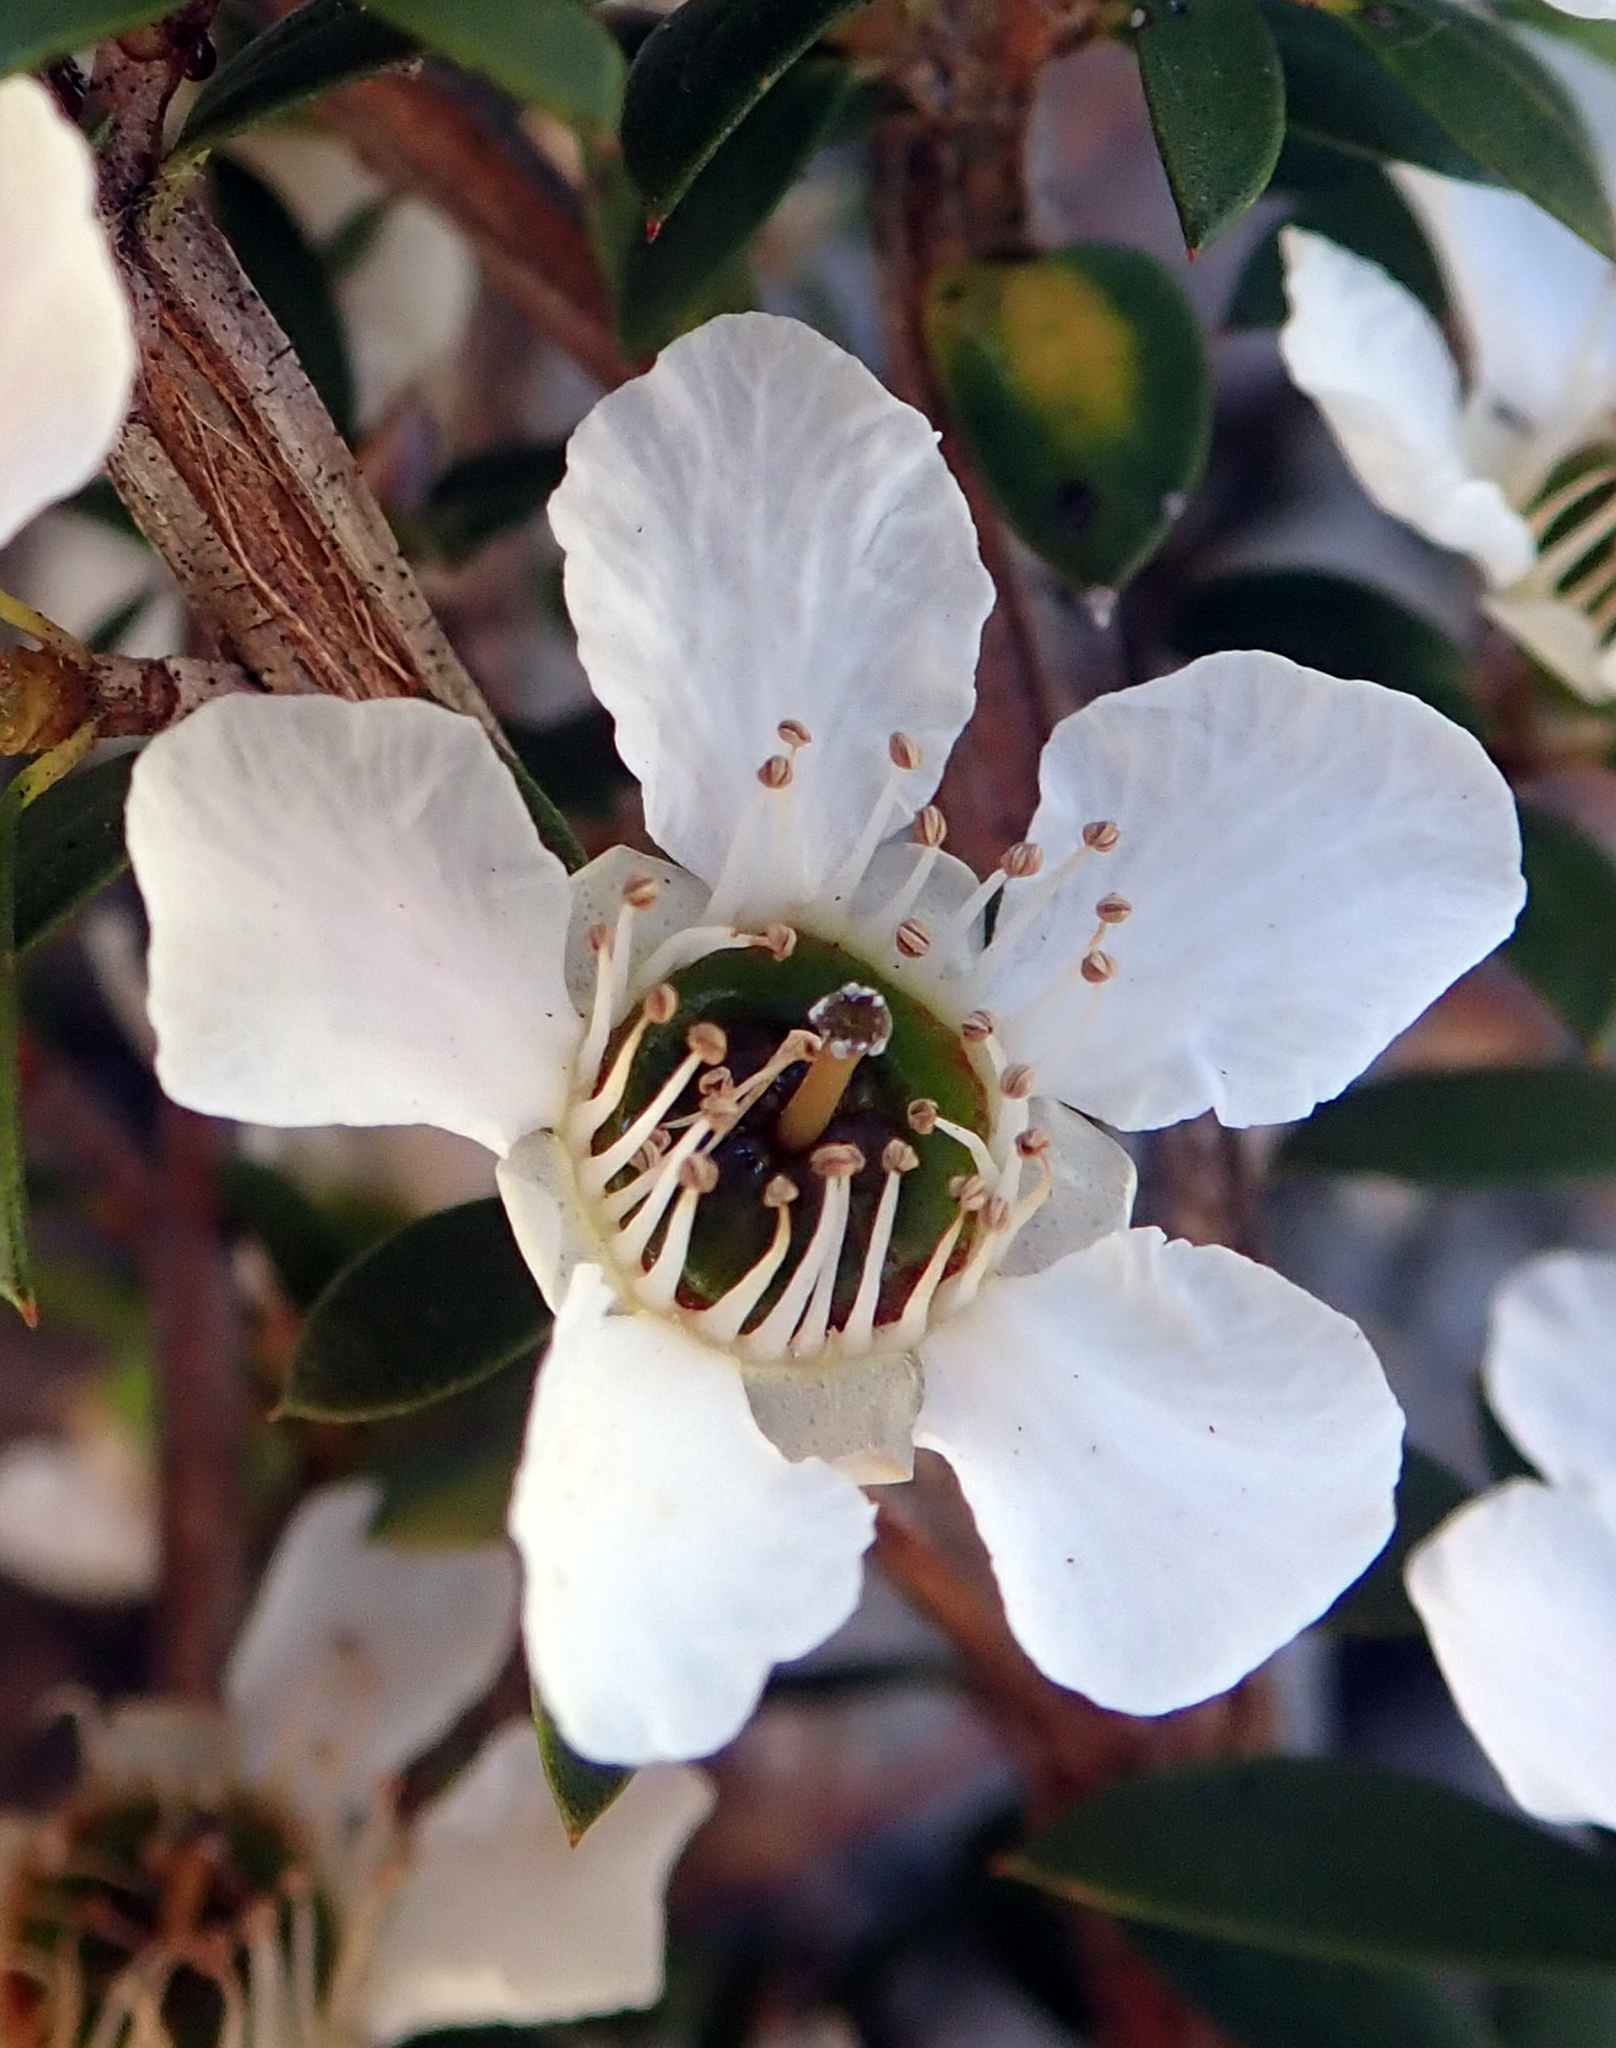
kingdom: Plantae
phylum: Tracheophyta
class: Magnoliopsida
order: Myrtales
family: Myrtaceae
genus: Leptospermum
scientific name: Leptospermum scoparium
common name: Broom tea-tree
